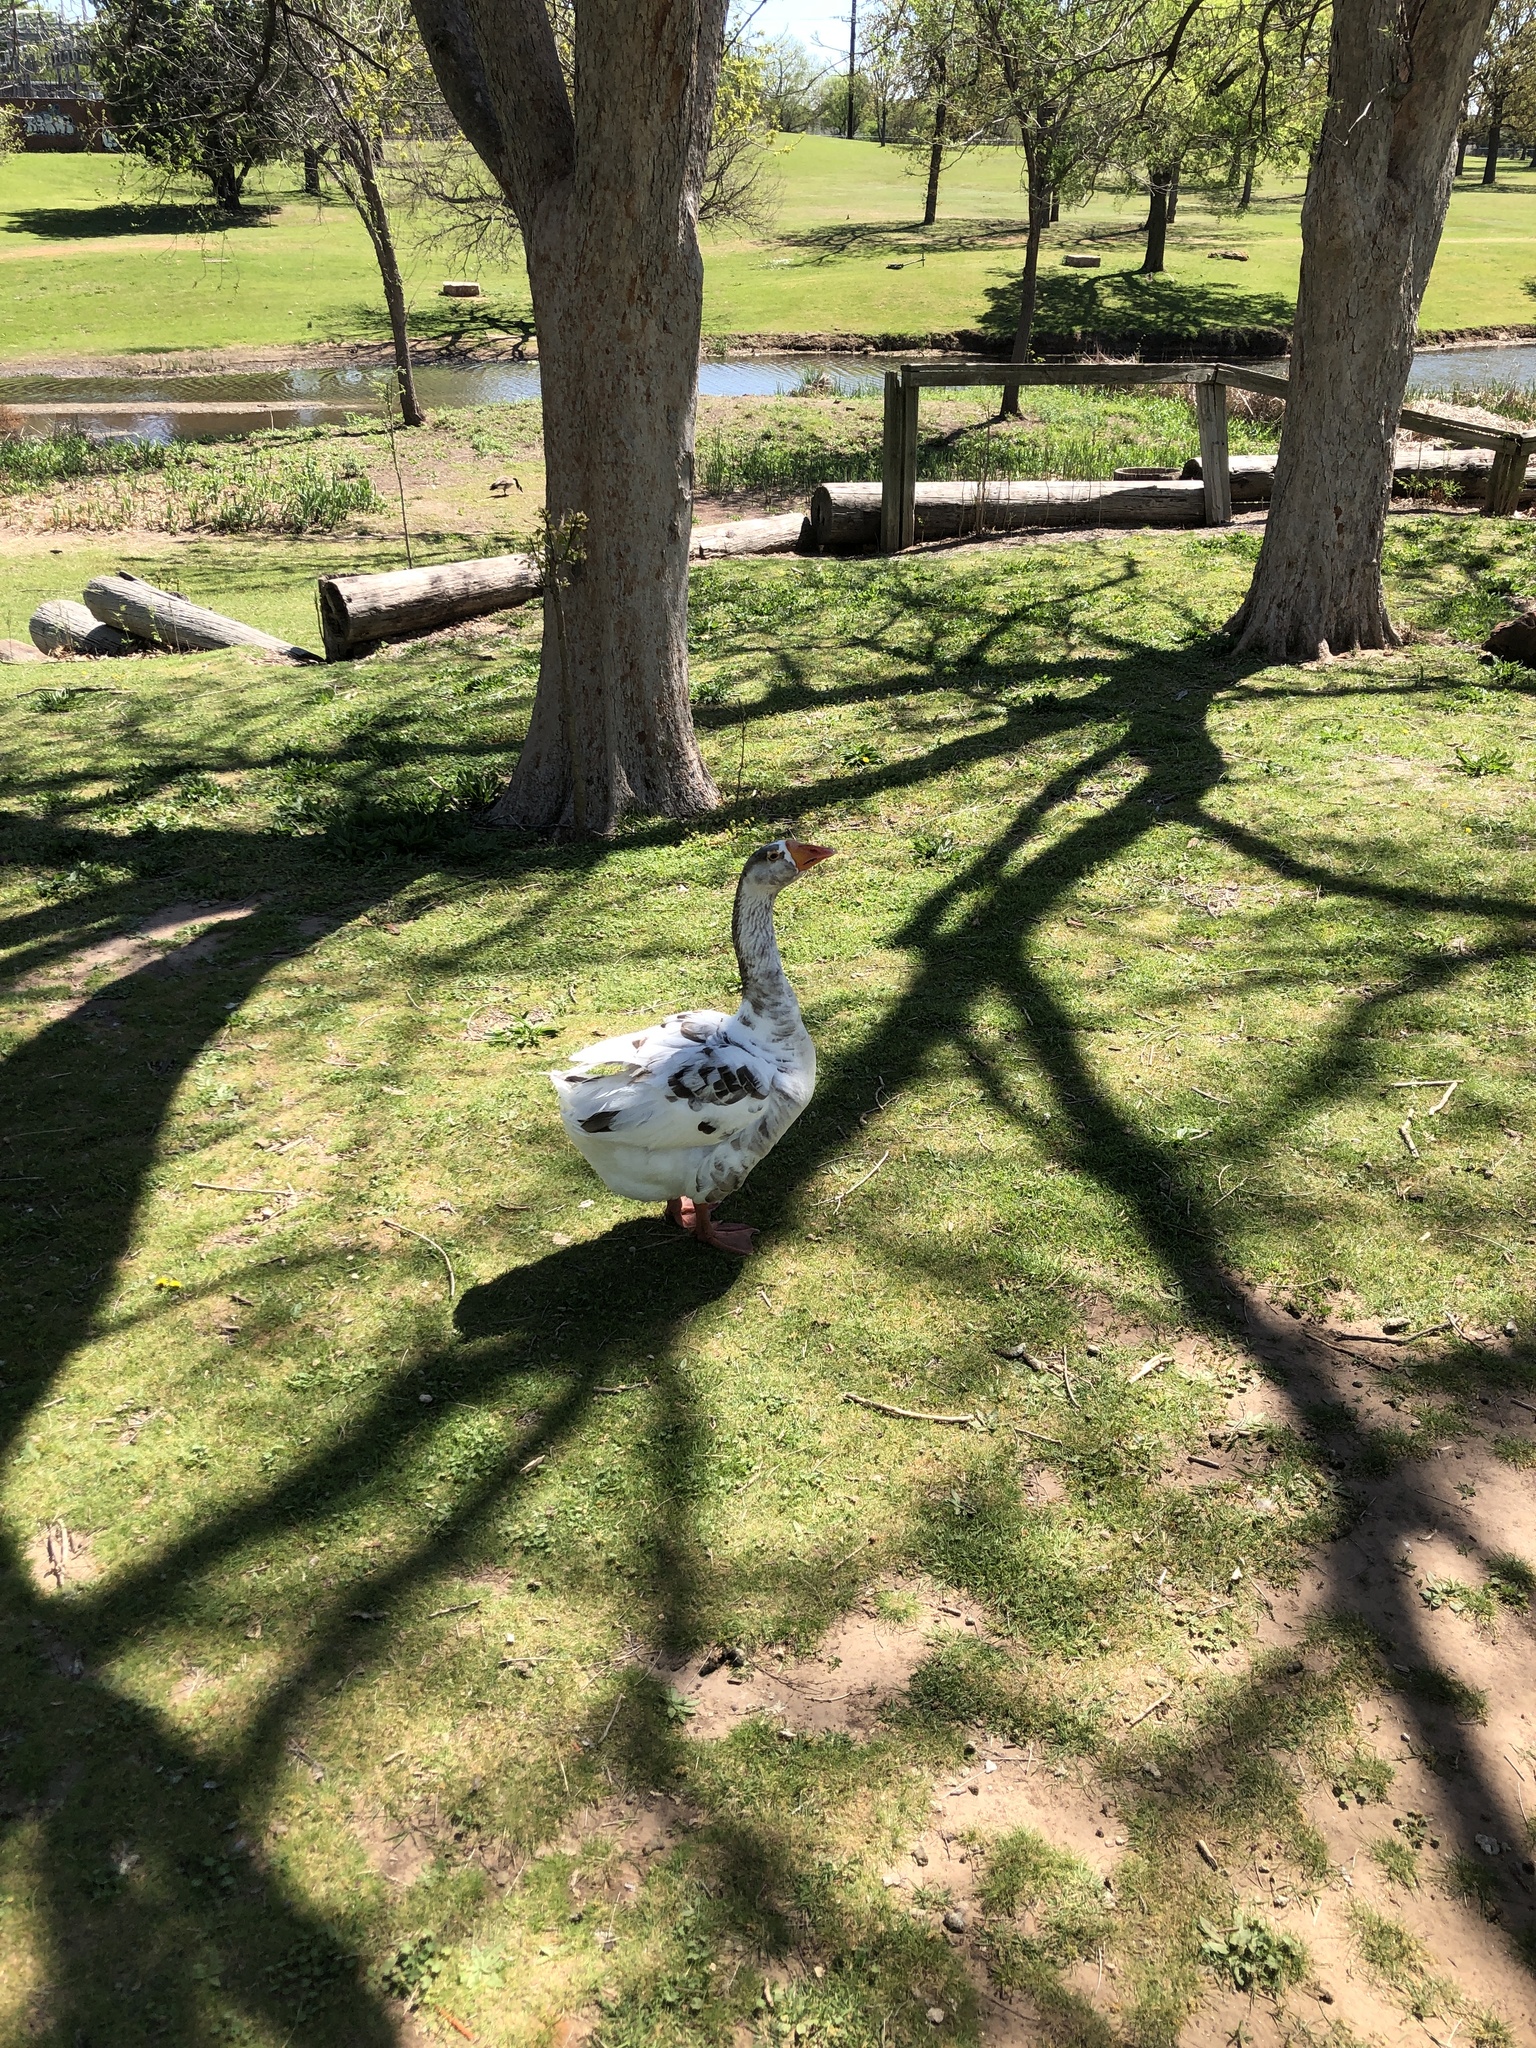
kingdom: Animalia
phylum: Chordata
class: Aves
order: Anseriformes
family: Anatidae
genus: Anser
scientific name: Anser
